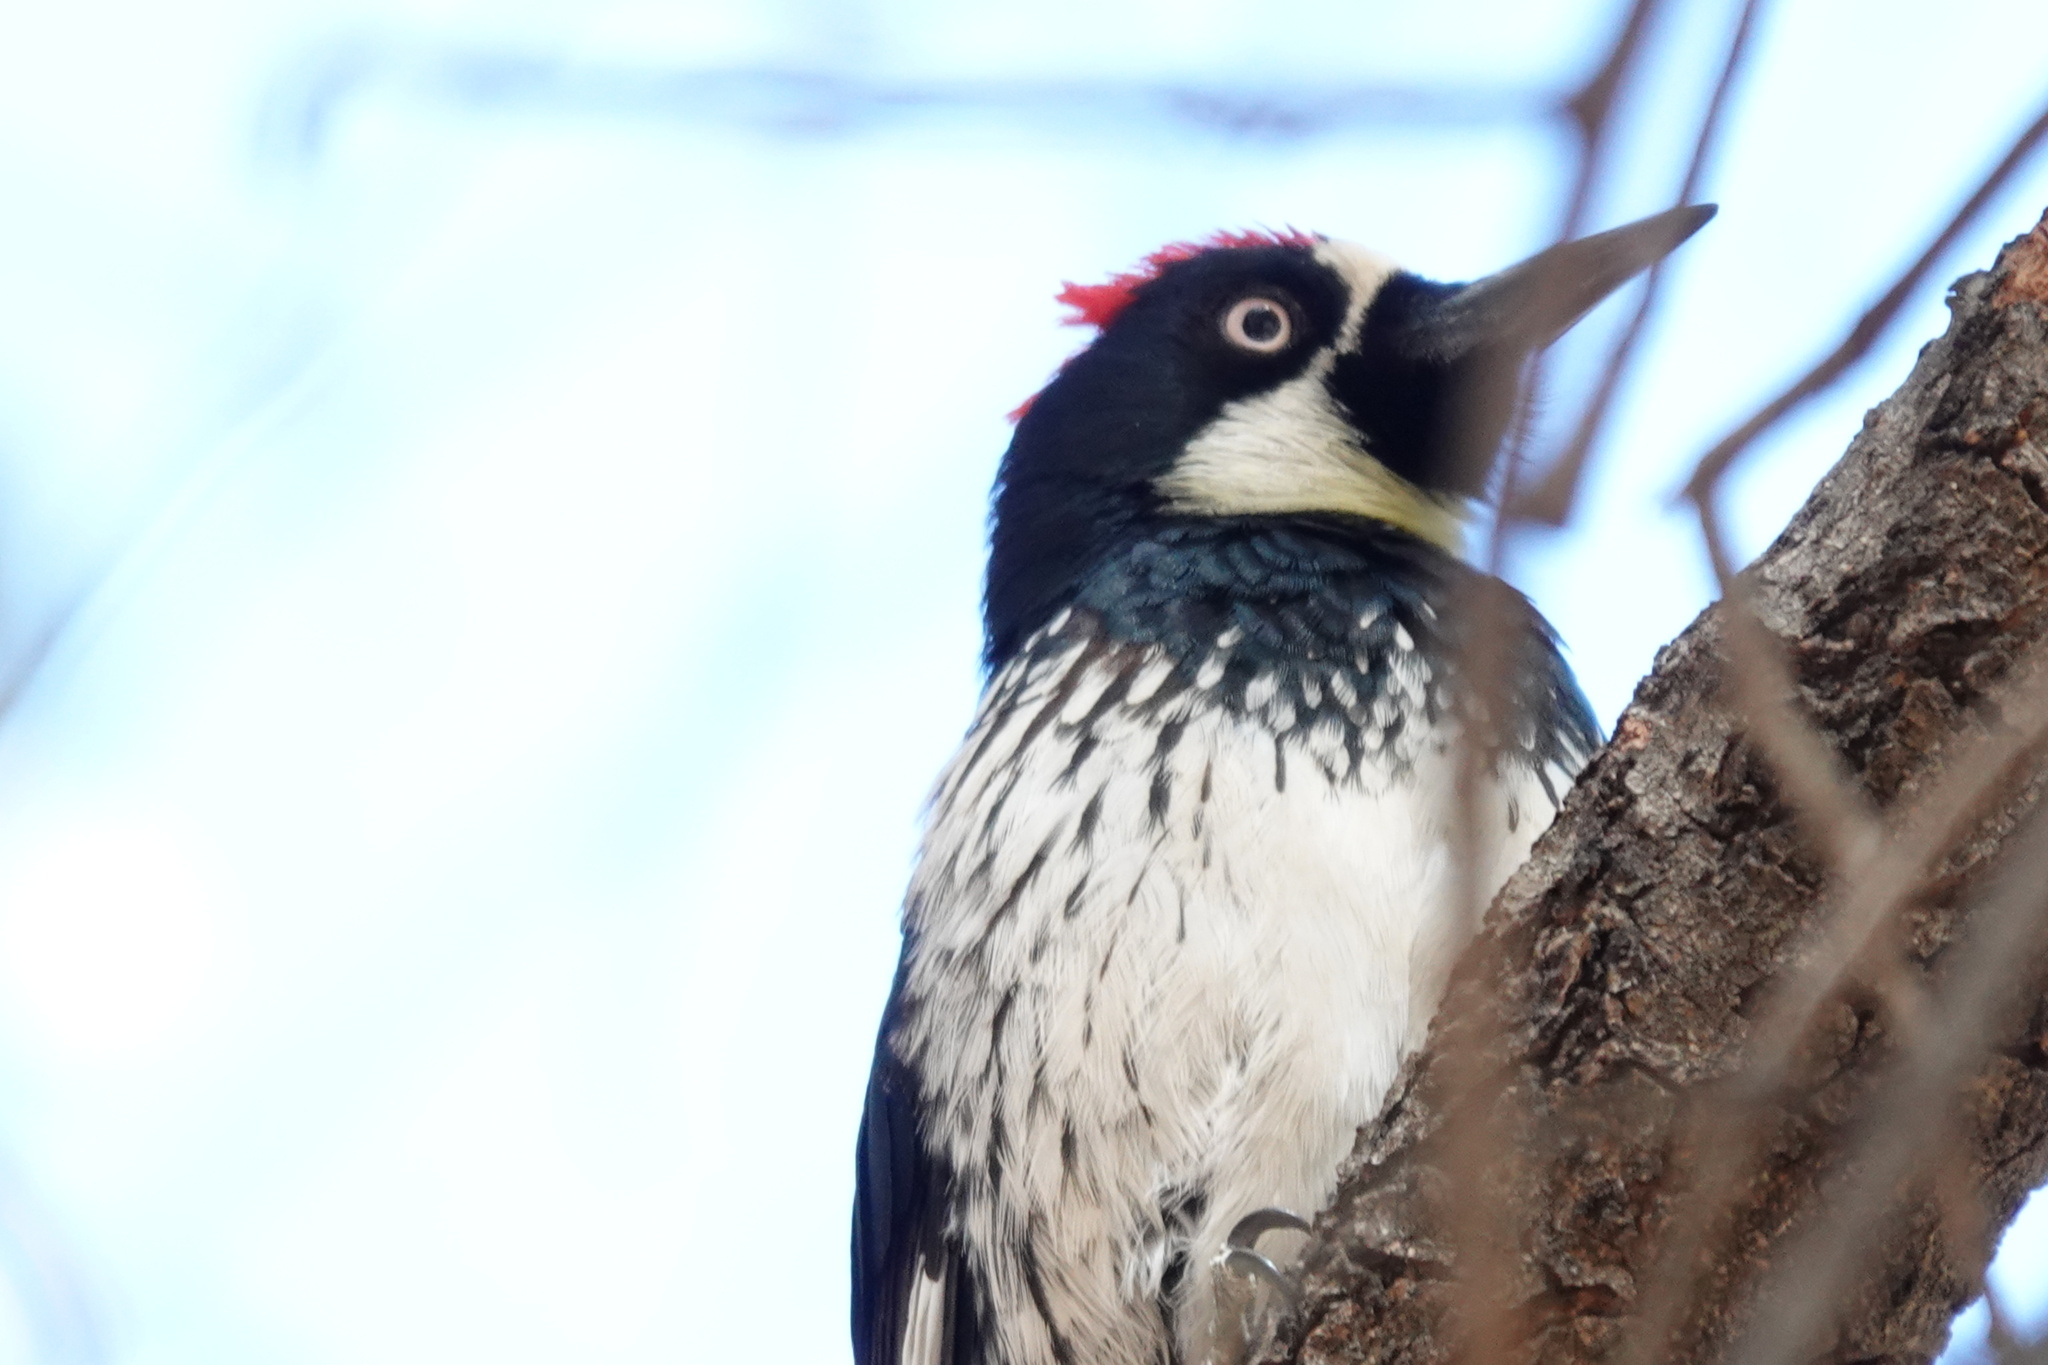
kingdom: Animalia
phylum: Chordata
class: Aves
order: Piciformes
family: Picidae
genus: Melanerpes
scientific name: Melanerpes formicivorus
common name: Acorn woodpecker
